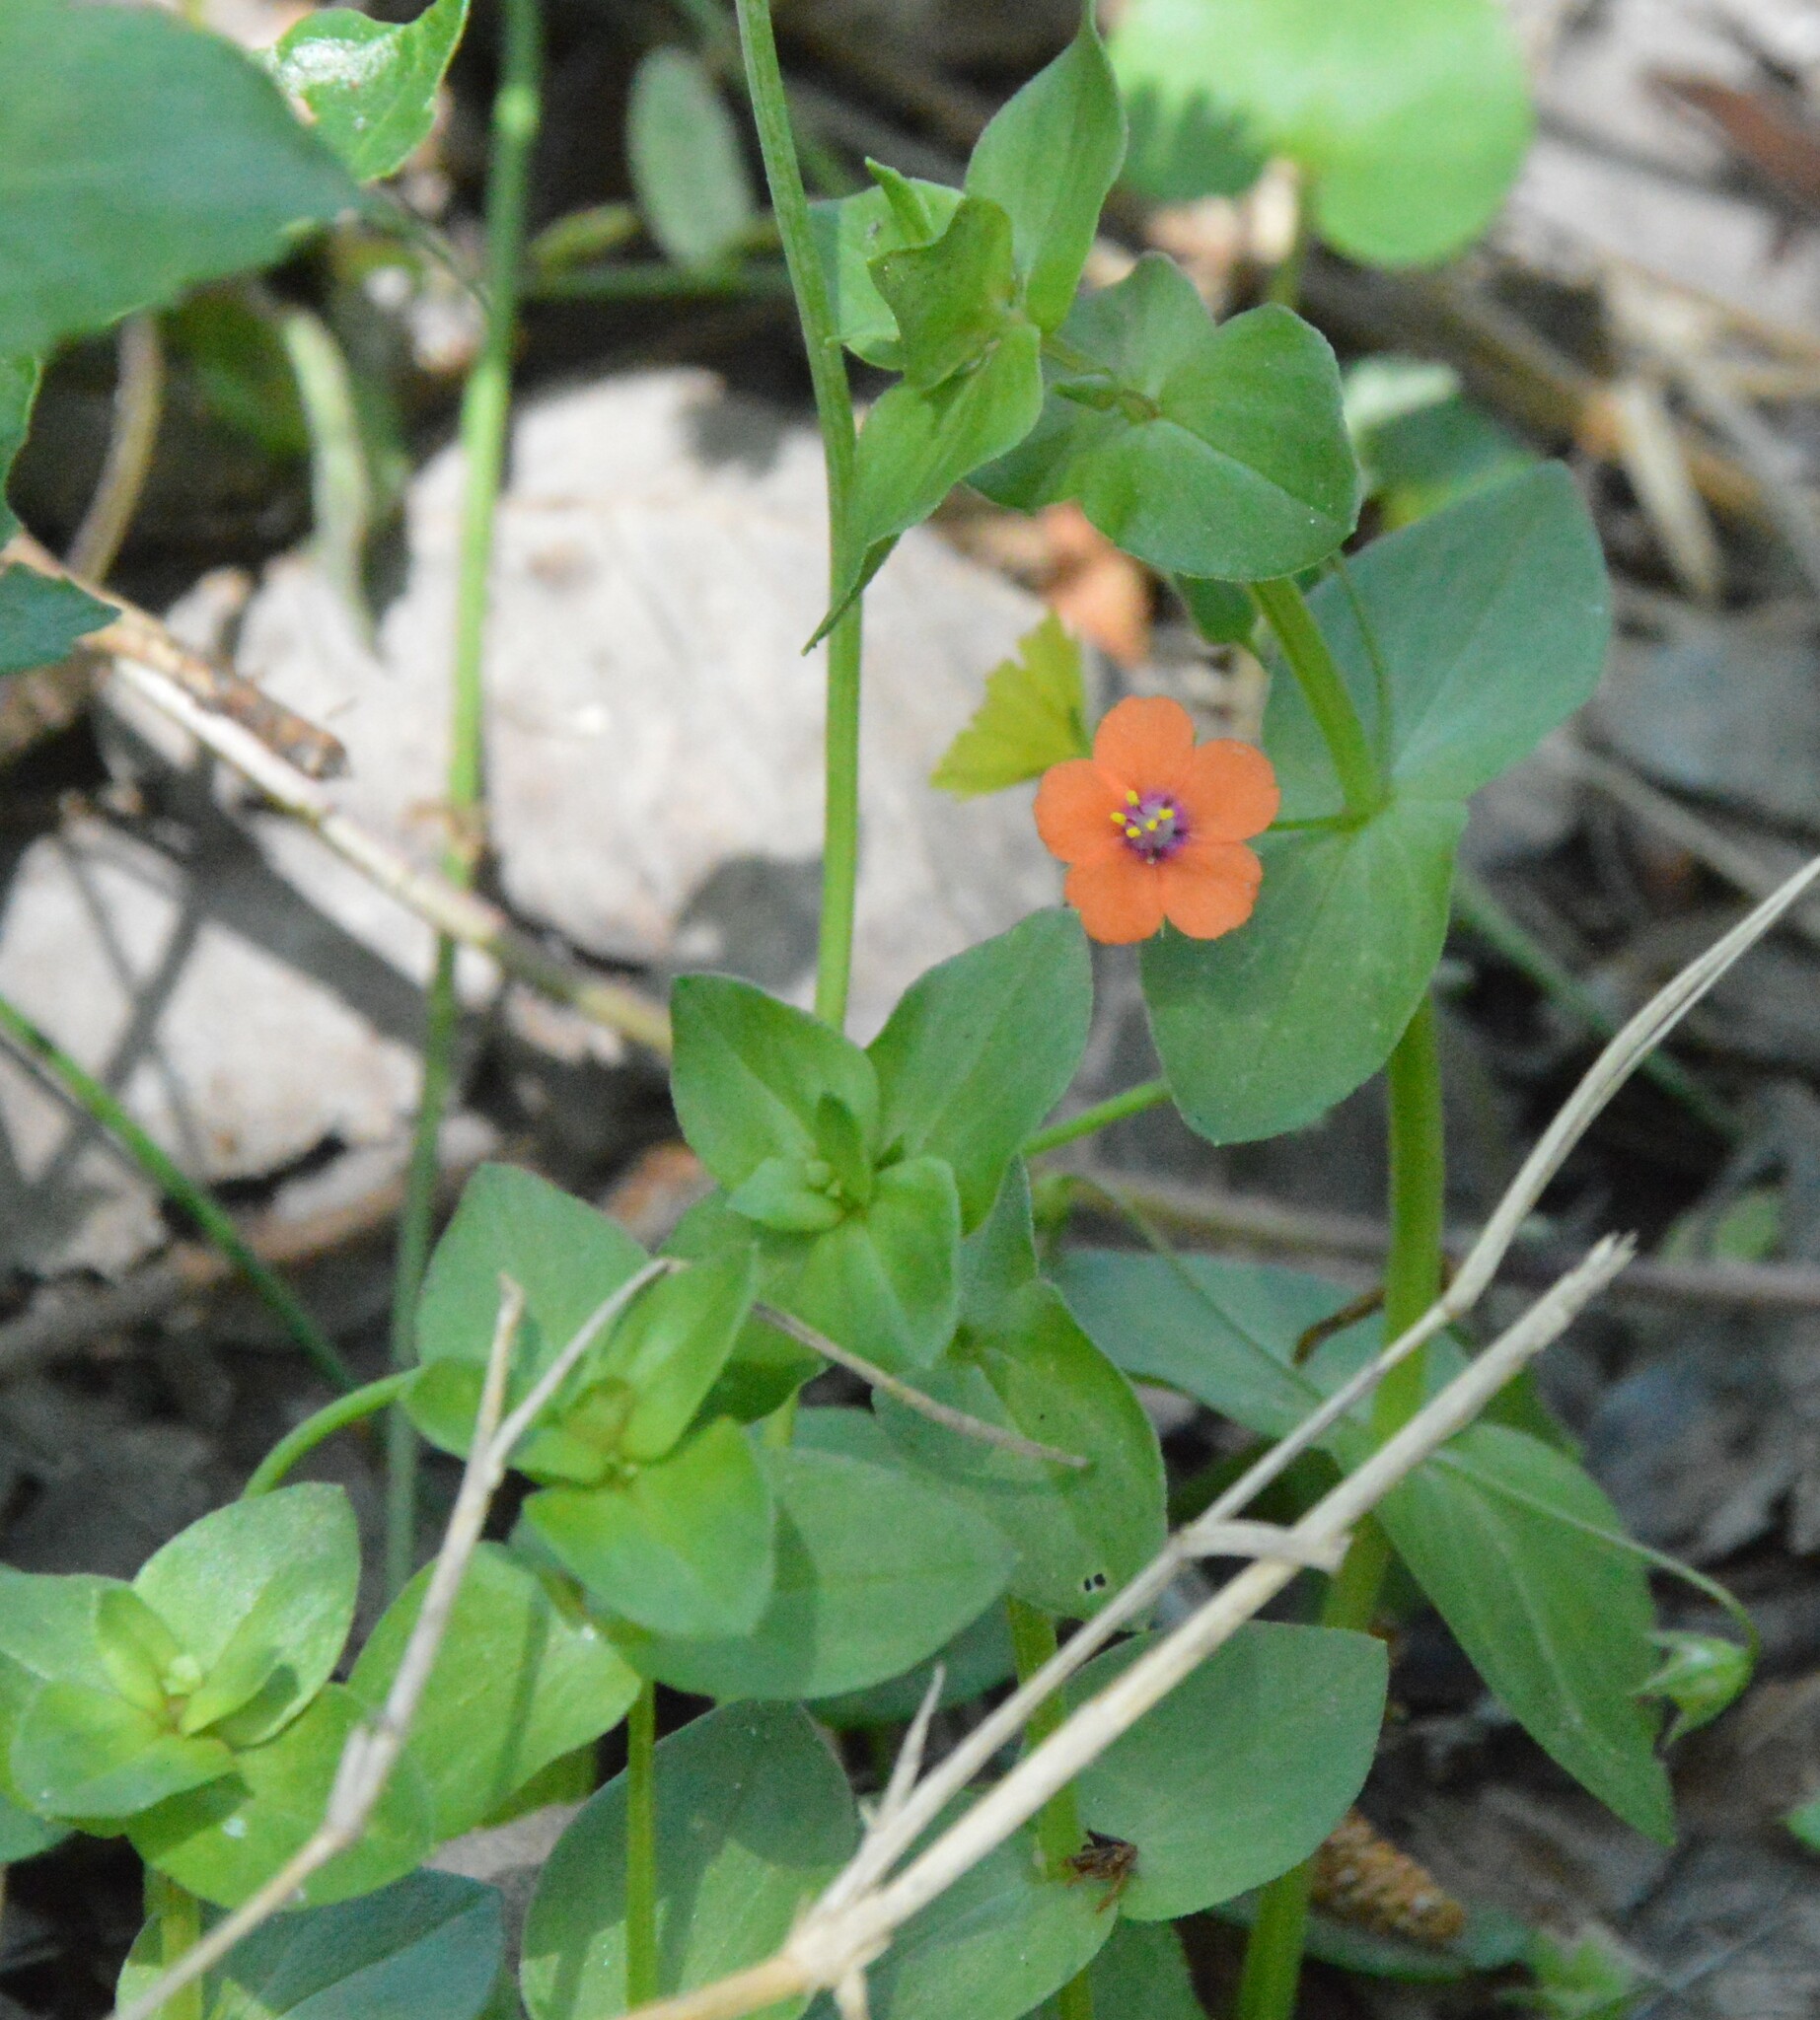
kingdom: Plantae
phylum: Tracheophyta
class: Magnoliopsida
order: Ericales
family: Primulaceae
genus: Lysimachia
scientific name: Lysimachia arvensis
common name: Scarlet pimpernel
